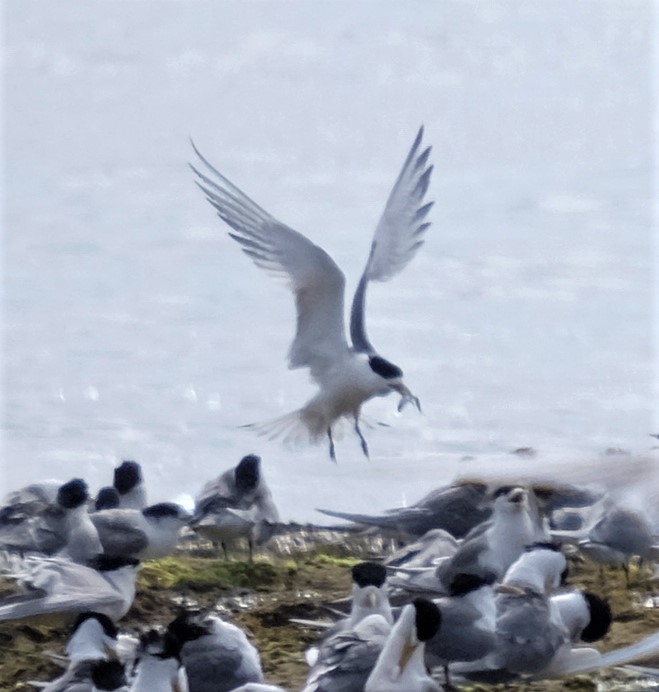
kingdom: Animalia
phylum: Chordata
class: Aves
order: Charadriiformes
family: Laridae
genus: Thalasseus
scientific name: Thalasseus bergii
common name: Greater crested tern
